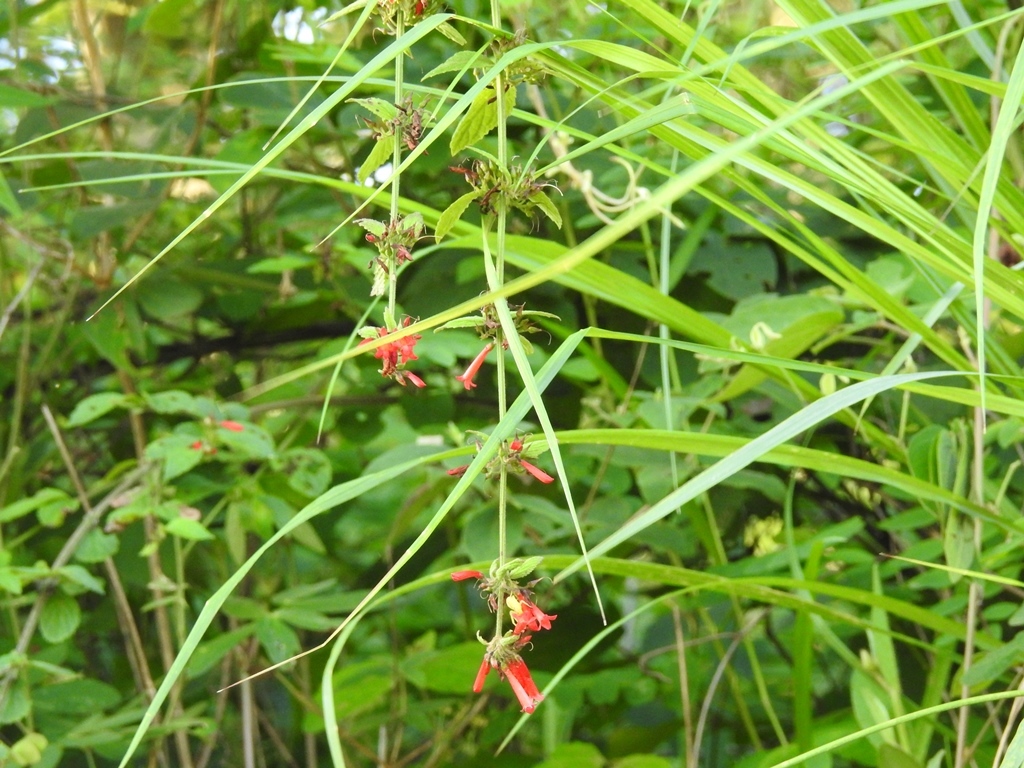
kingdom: Plantae
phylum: Tracheophyta
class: Magnoliopsida
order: Lamiales
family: Plantaginaceae
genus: Russelia
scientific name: Russelia sarmentosa
